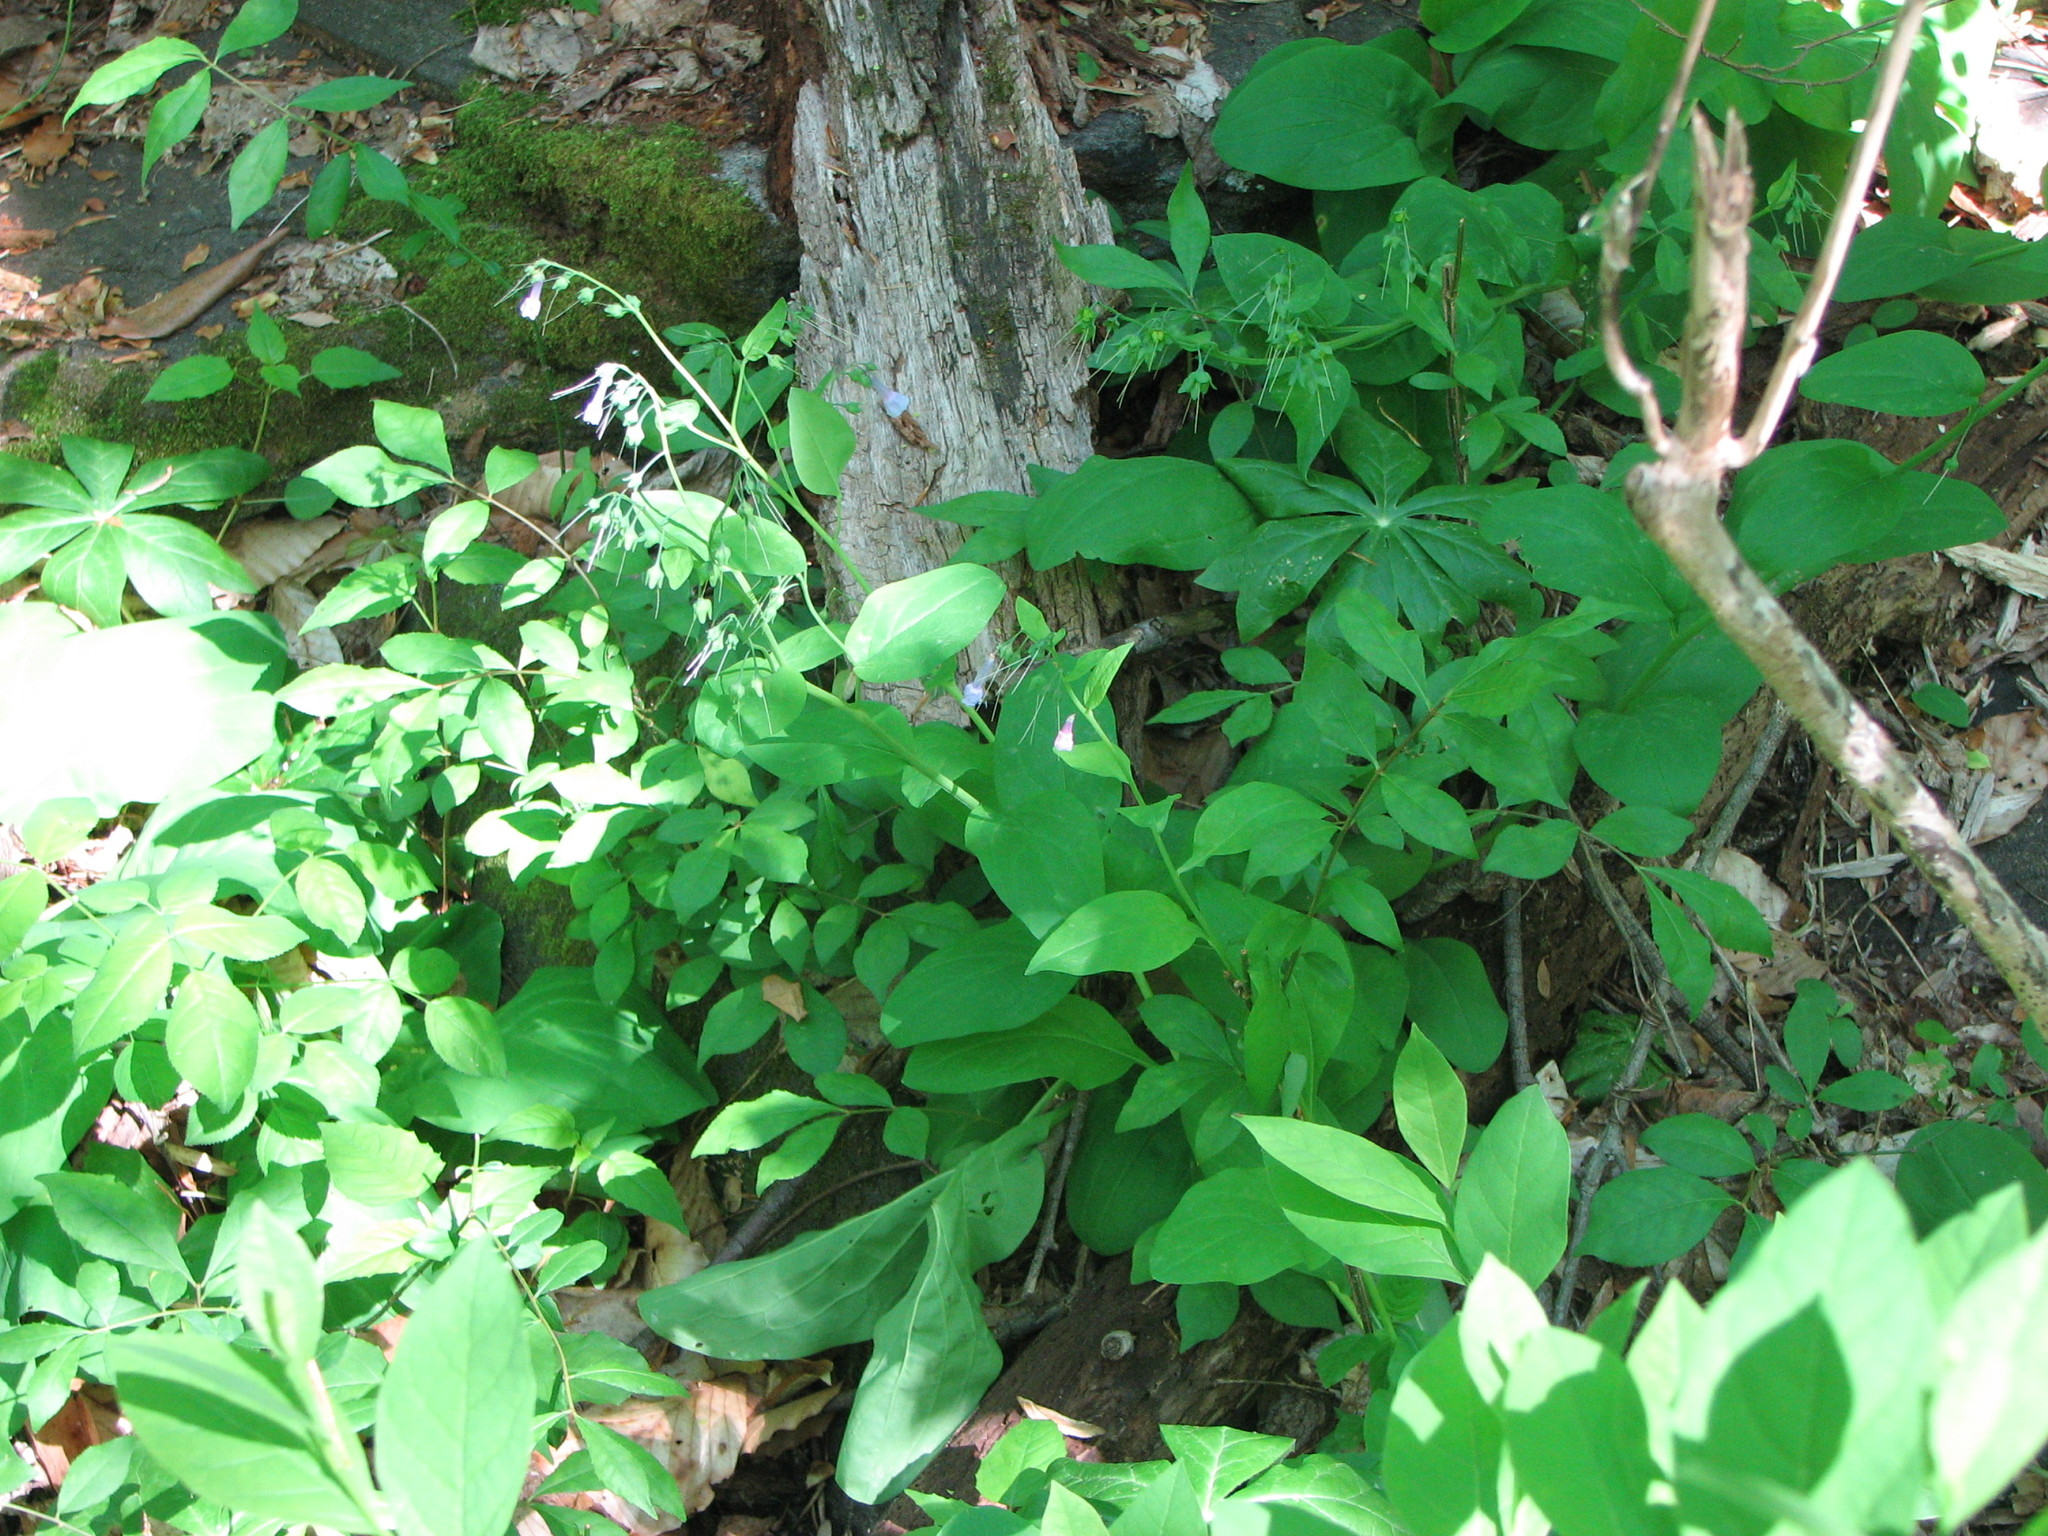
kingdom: Plantae
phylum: Tracheophyta
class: Magnoliopsida
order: Boraginales
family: Boraginaceae
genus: Mertensia
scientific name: Mertensia virginica
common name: Virginia bluebells
